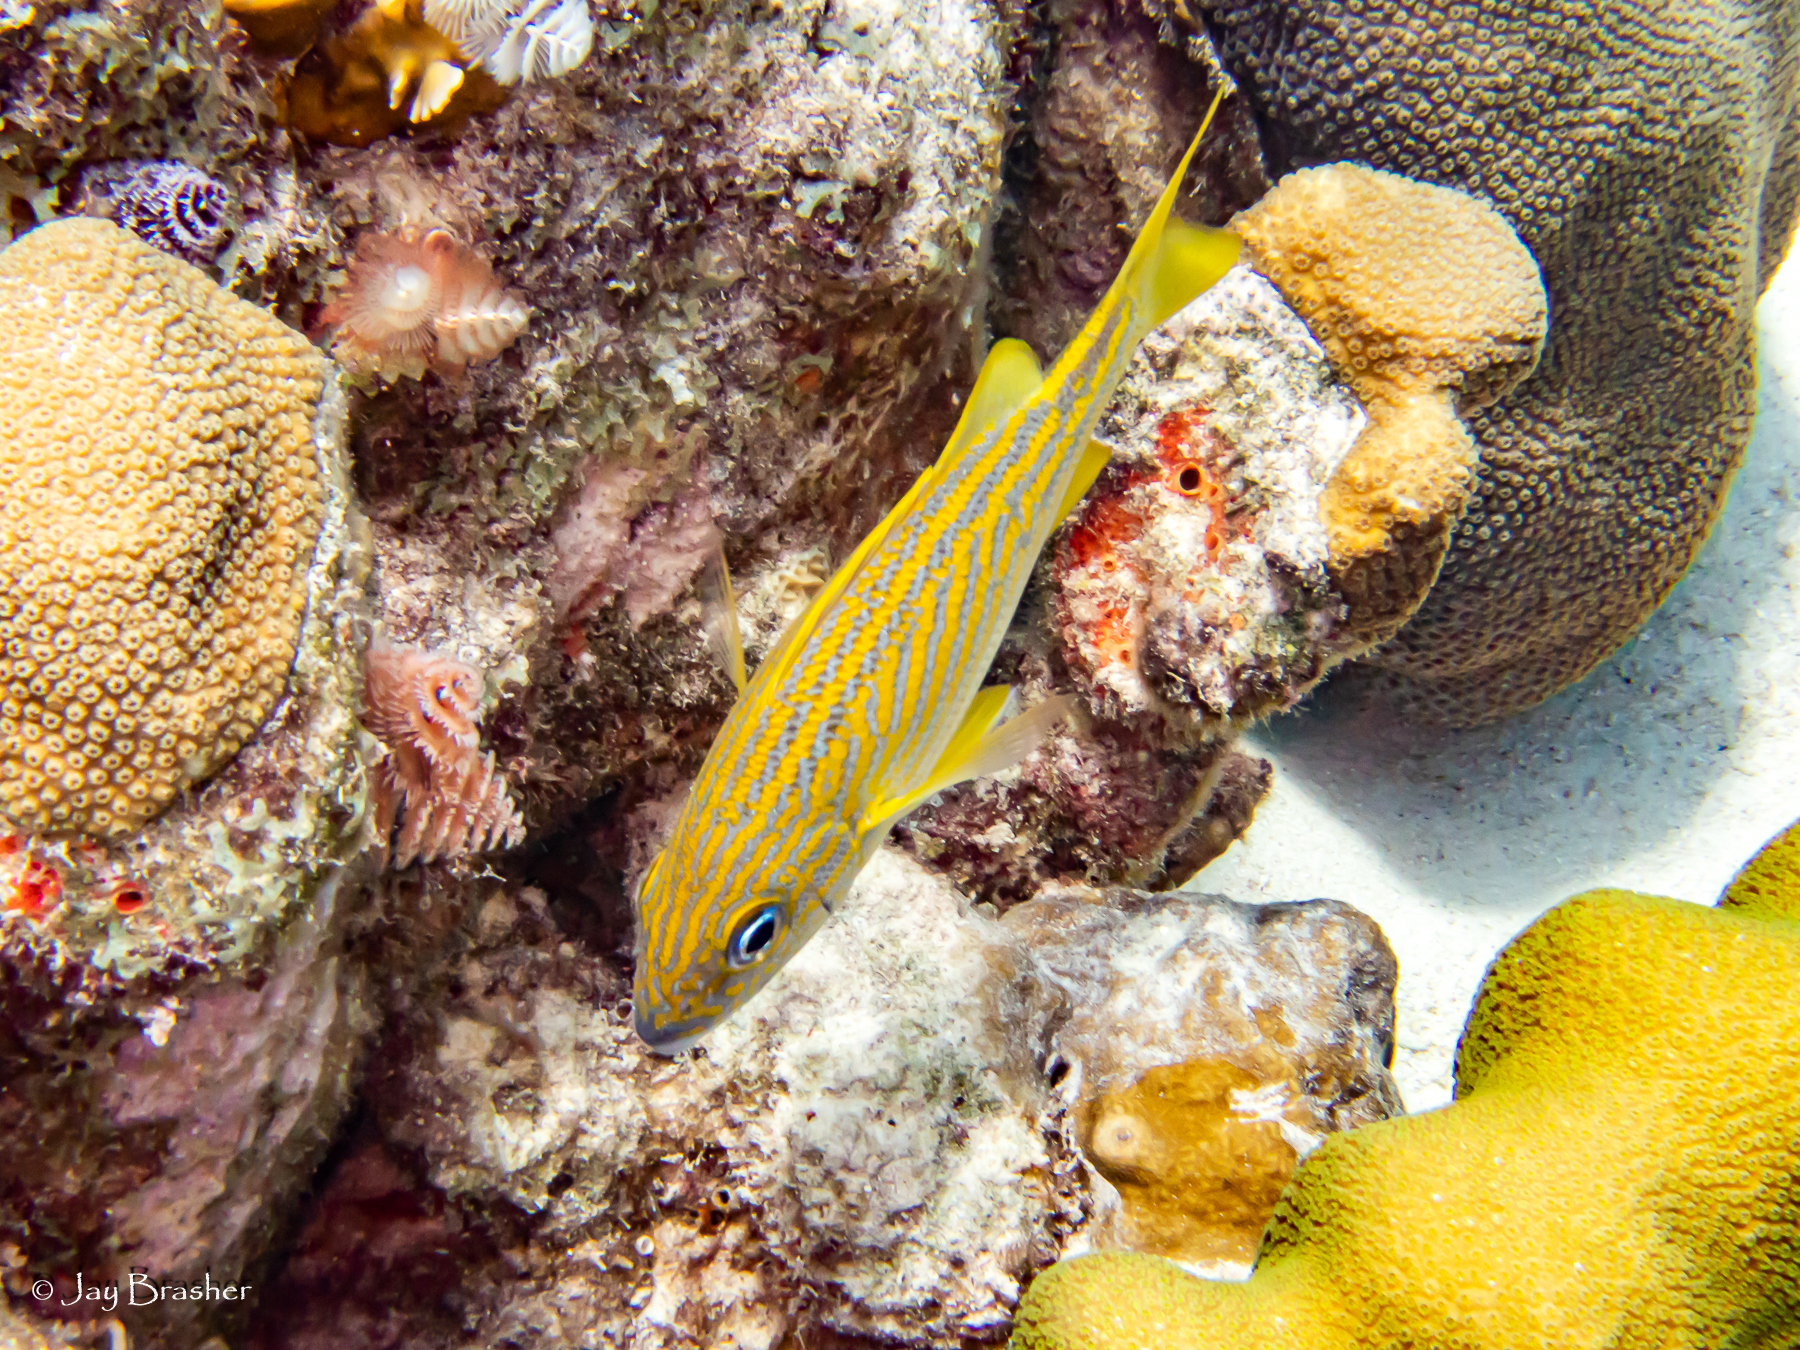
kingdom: Animalia
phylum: Chordata
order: Perciformes
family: Haemulidae
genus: Haemulon
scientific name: Haemulon flavolineatum
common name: French grunt
